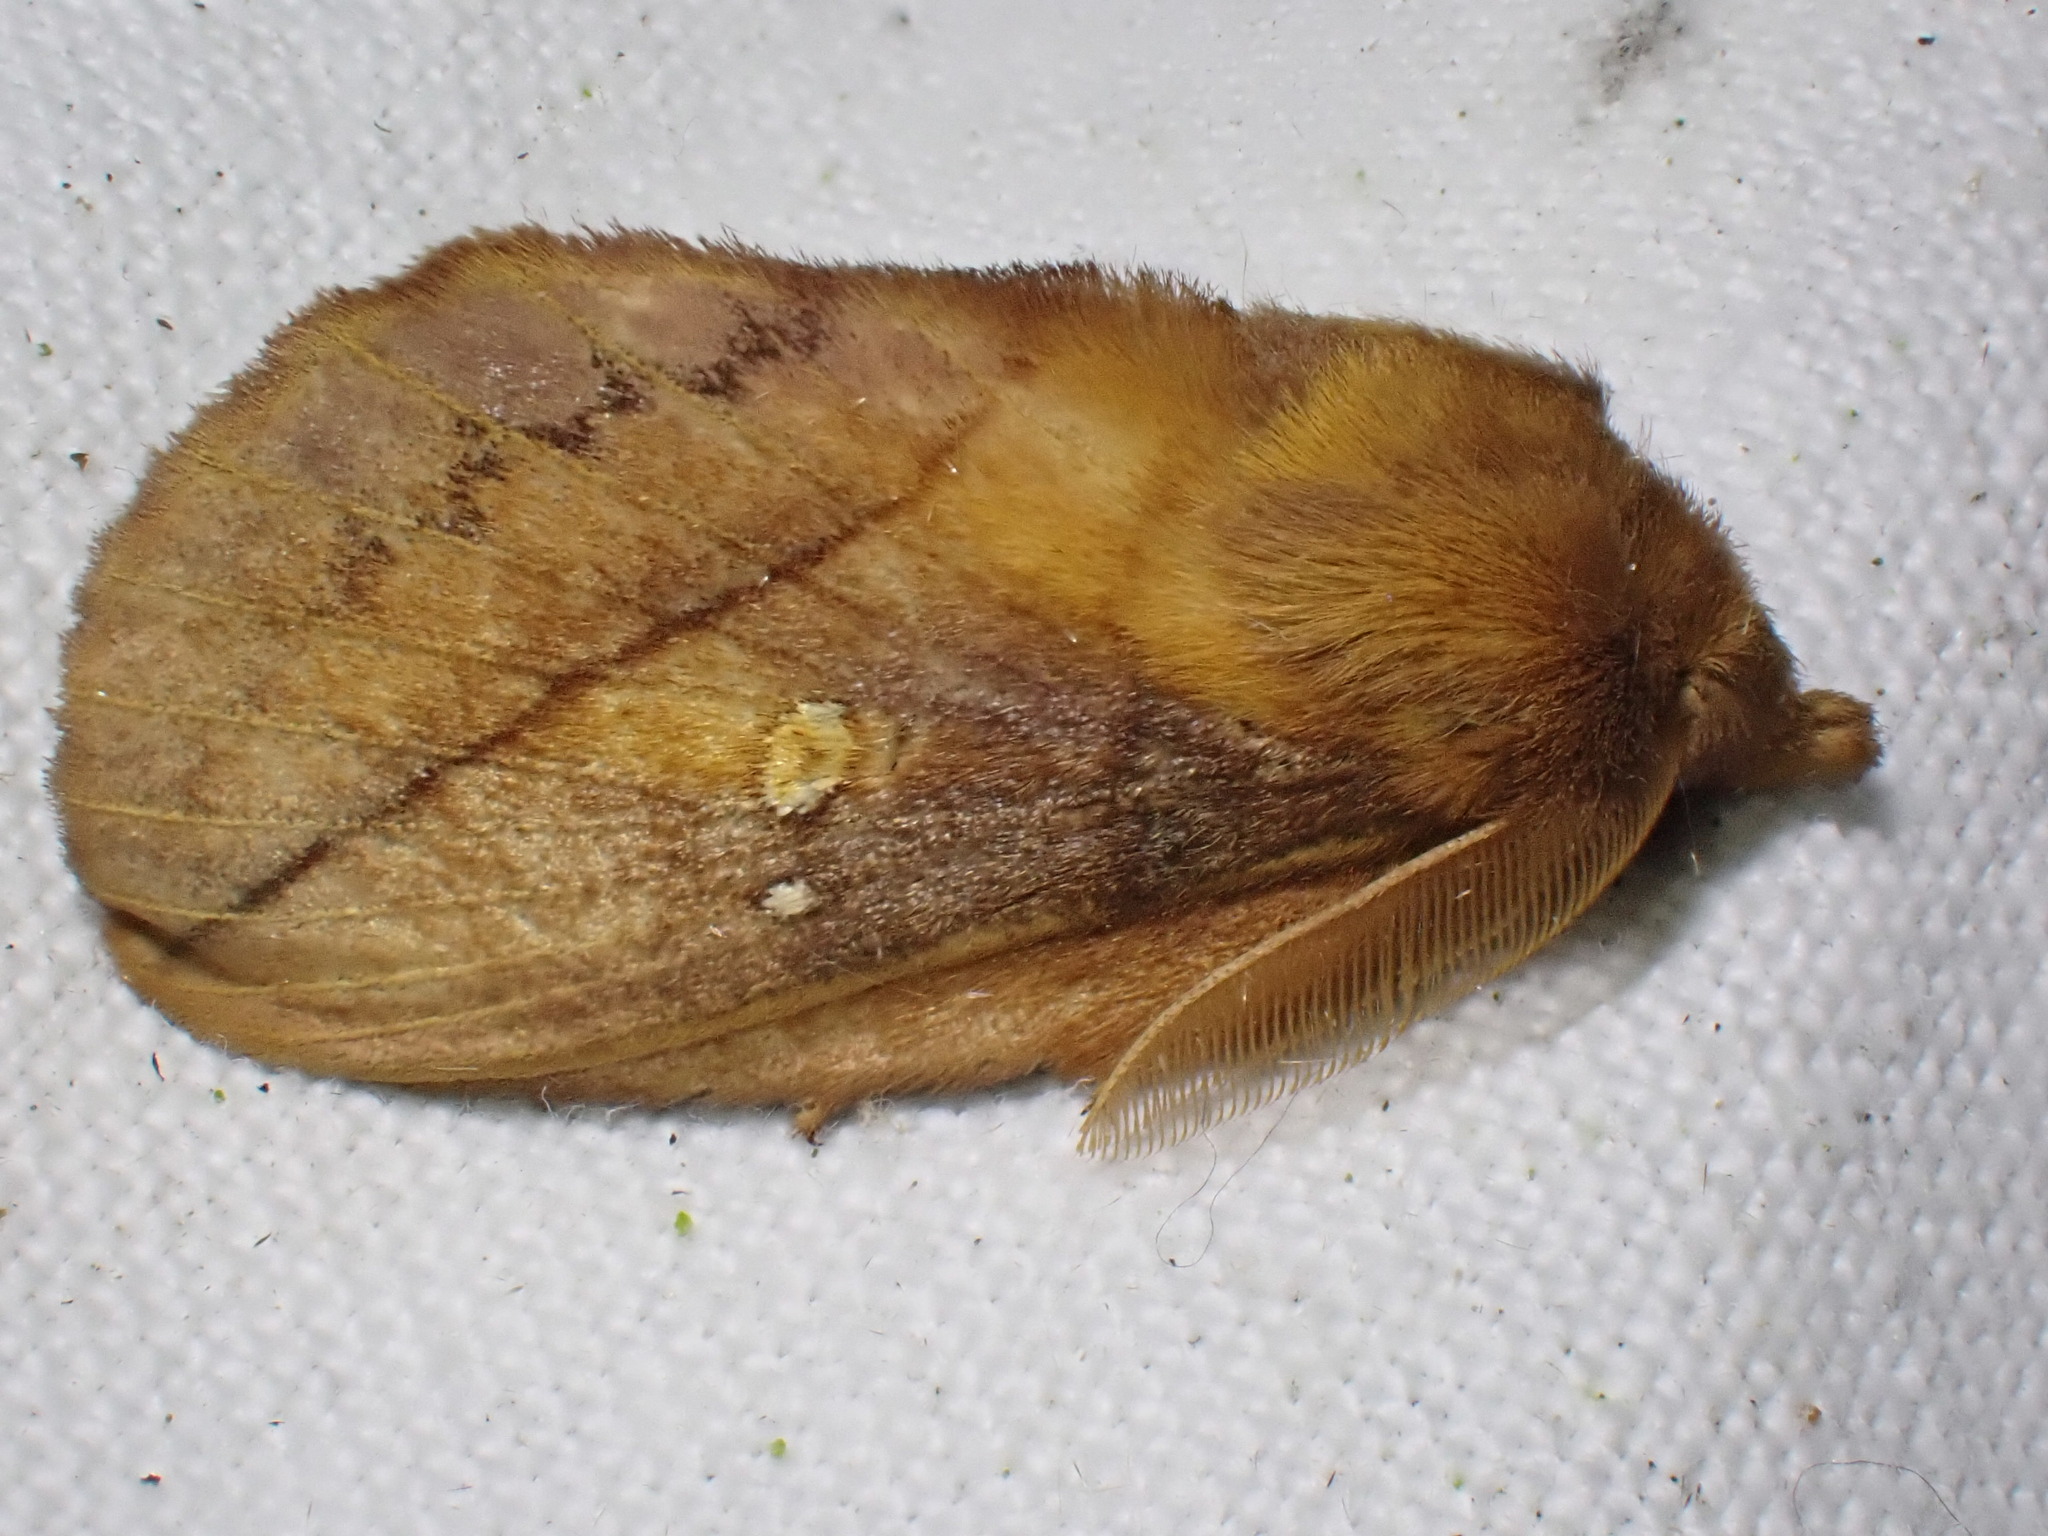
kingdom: Animalia
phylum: Arthropoda
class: Insecta
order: Lepidoptera
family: Lasiocampidae
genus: Euthrix
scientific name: Euthrix potatoria
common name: Drinker
